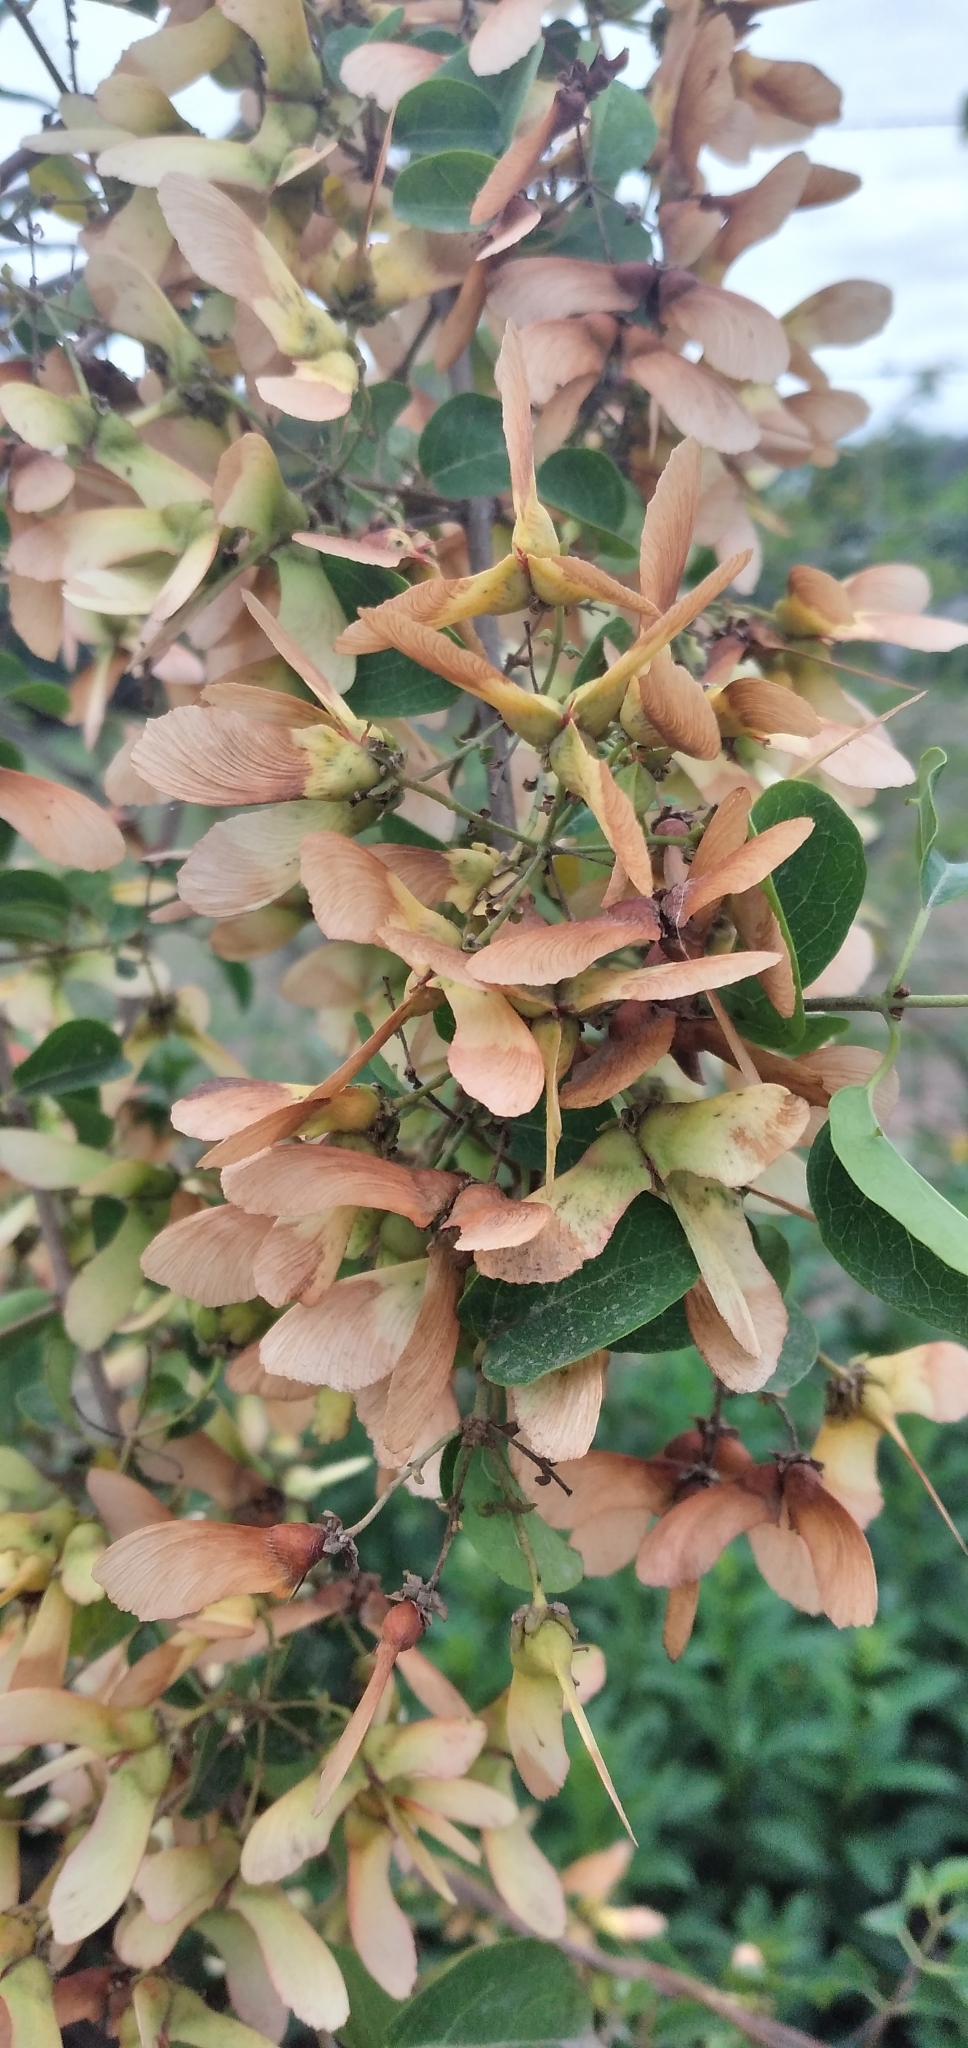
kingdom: Plantae
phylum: Tracheophyta
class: Magnoliopsida
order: Malpighiales
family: Malpighiaceae
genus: Heteropterys
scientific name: Heteropterys dumetorum
